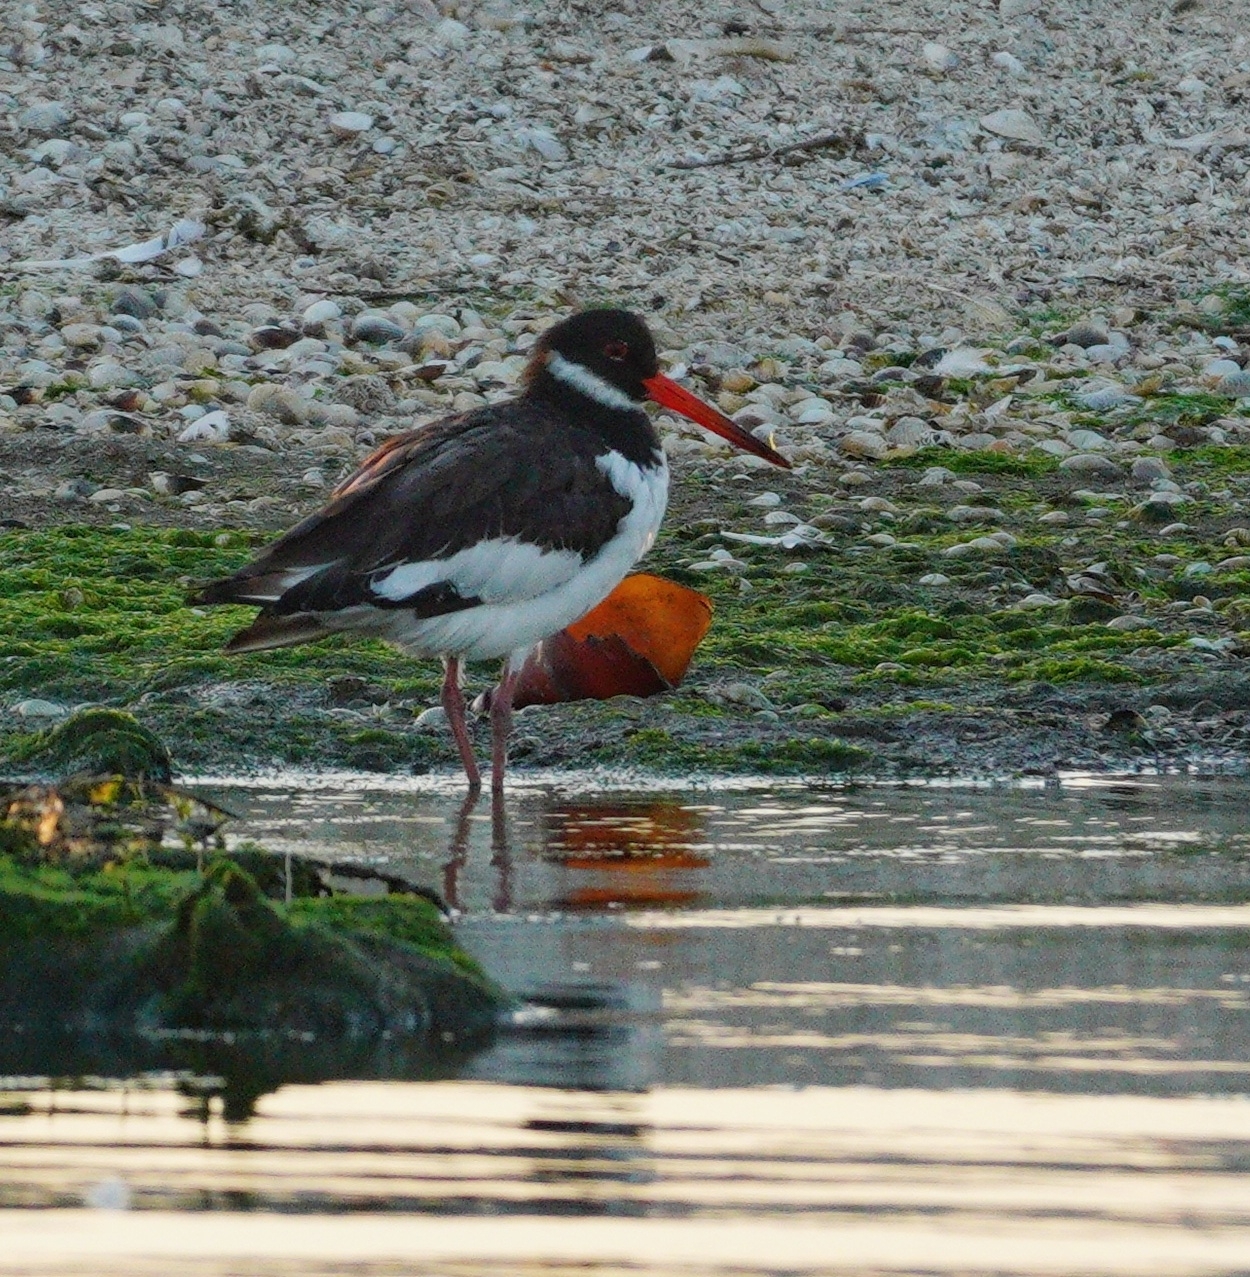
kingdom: Animalia
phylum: Chordata
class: Aves
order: Charadriiformes
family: Haematopodidae
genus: Haematopus
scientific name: Haematopus ostralegus
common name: Eurasian oystercatcher
